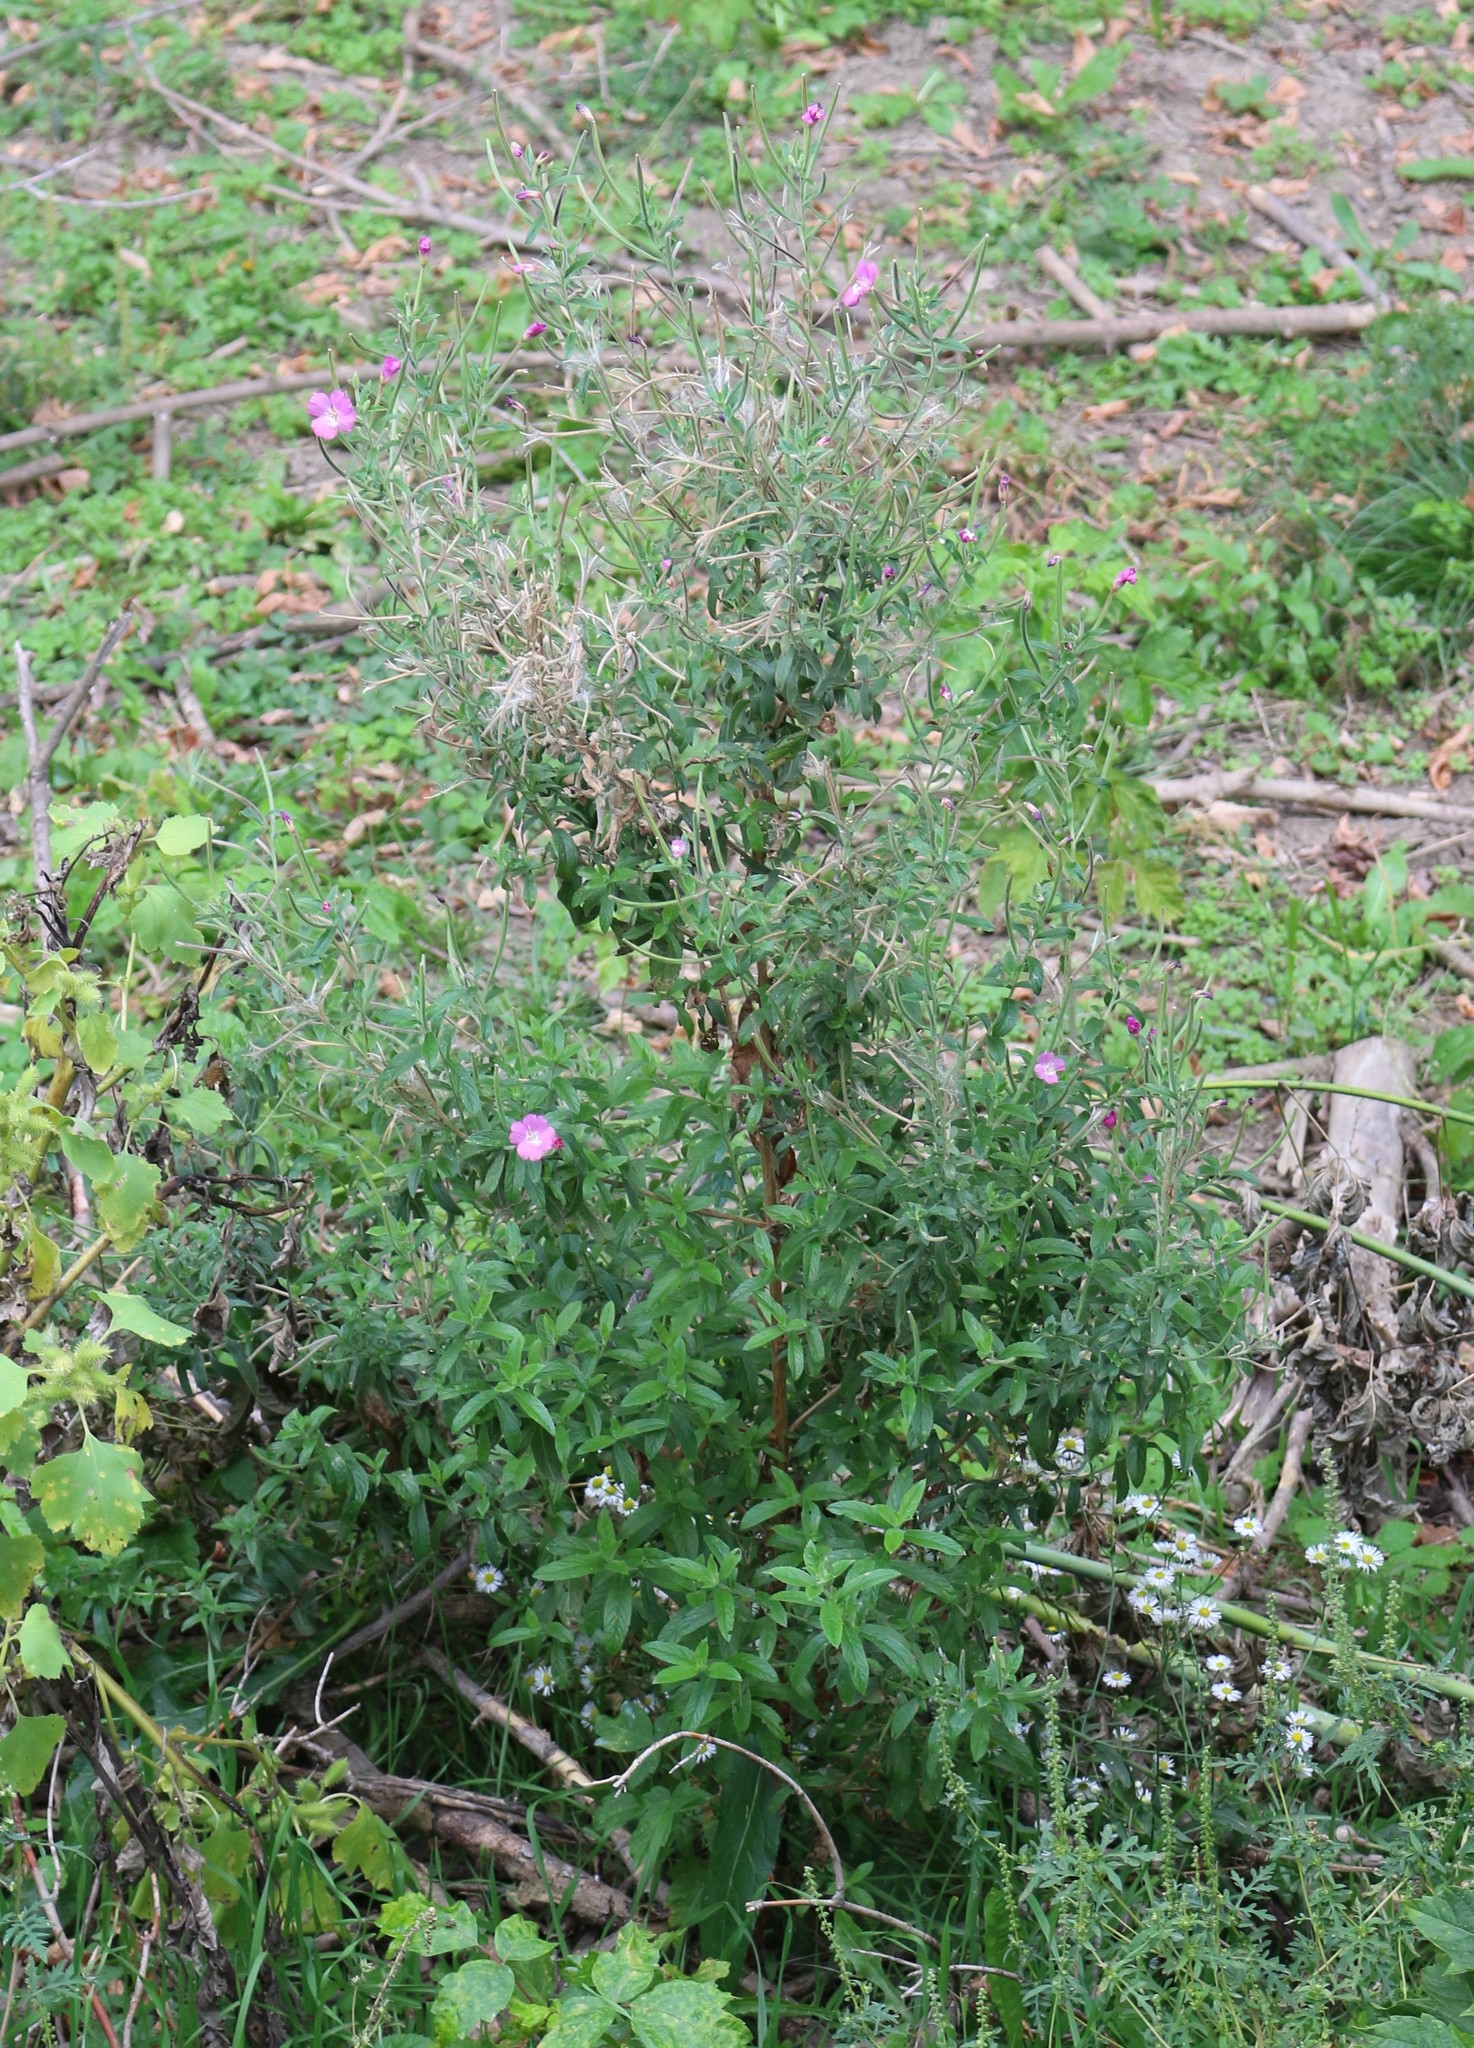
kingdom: Plantae
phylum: Tracheophyta
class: Magnoliopsida
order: Myrtales
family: Onagraceae
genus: Epilobium
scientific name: Epilobium hirsutum
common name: Great willowherb
